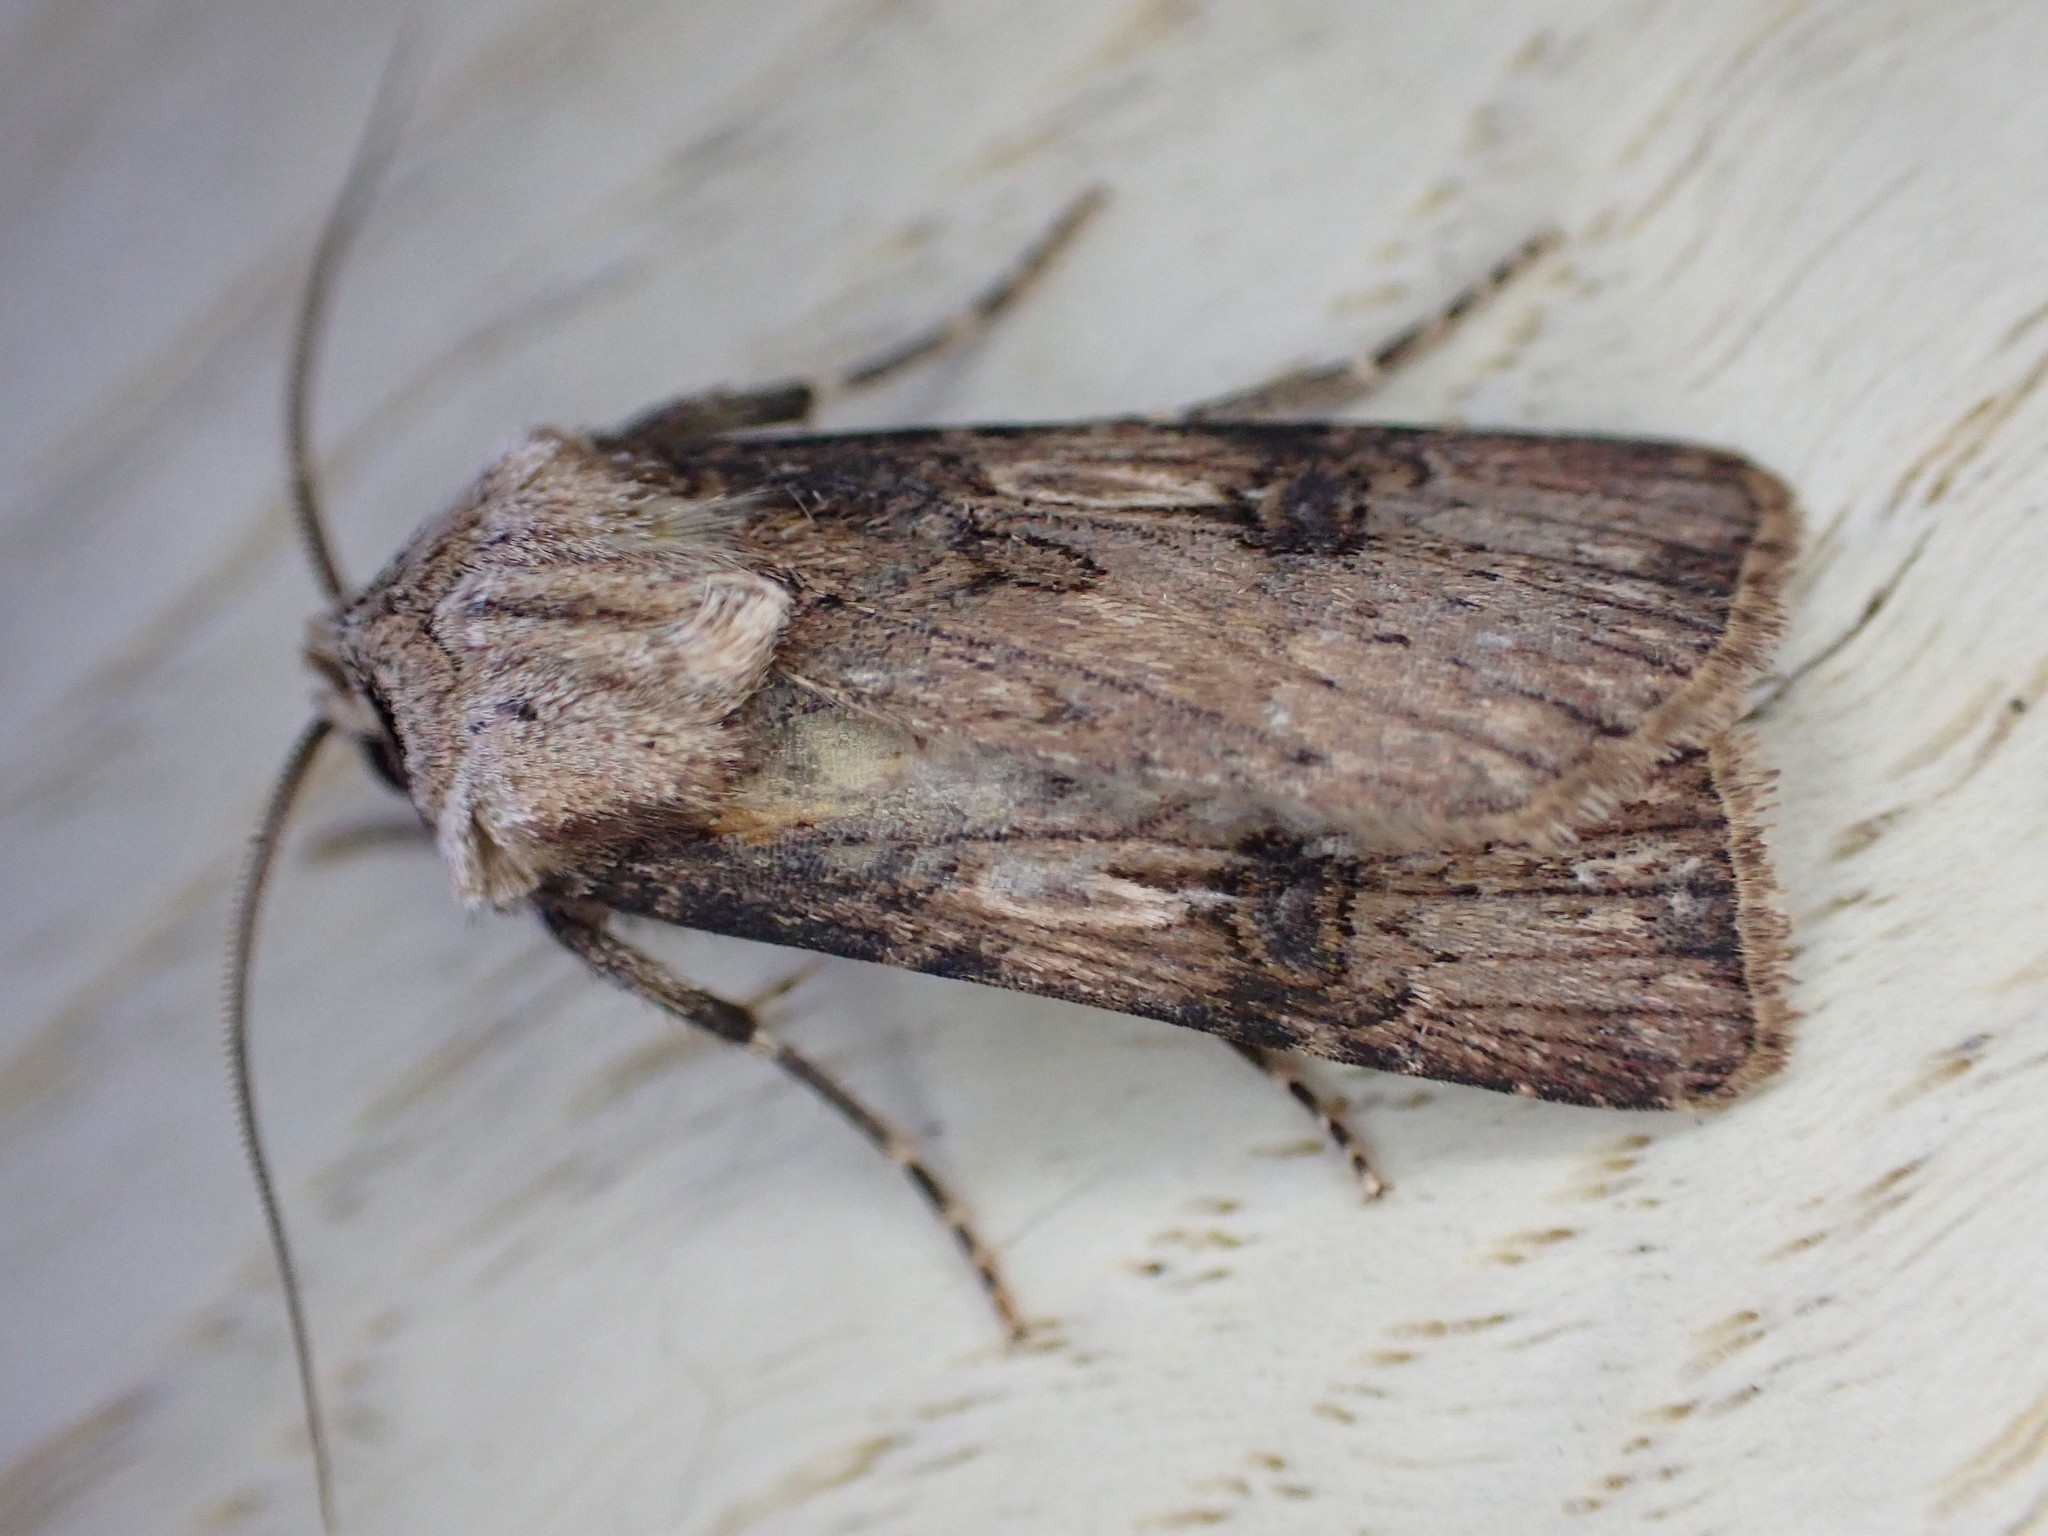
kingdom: Animalia
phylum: Arthropoda
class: Insecta
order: Lepidoptera
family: Noctuidae
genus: Agrotis
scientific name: Agrotis puta
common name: Shuttle-shaped dart
